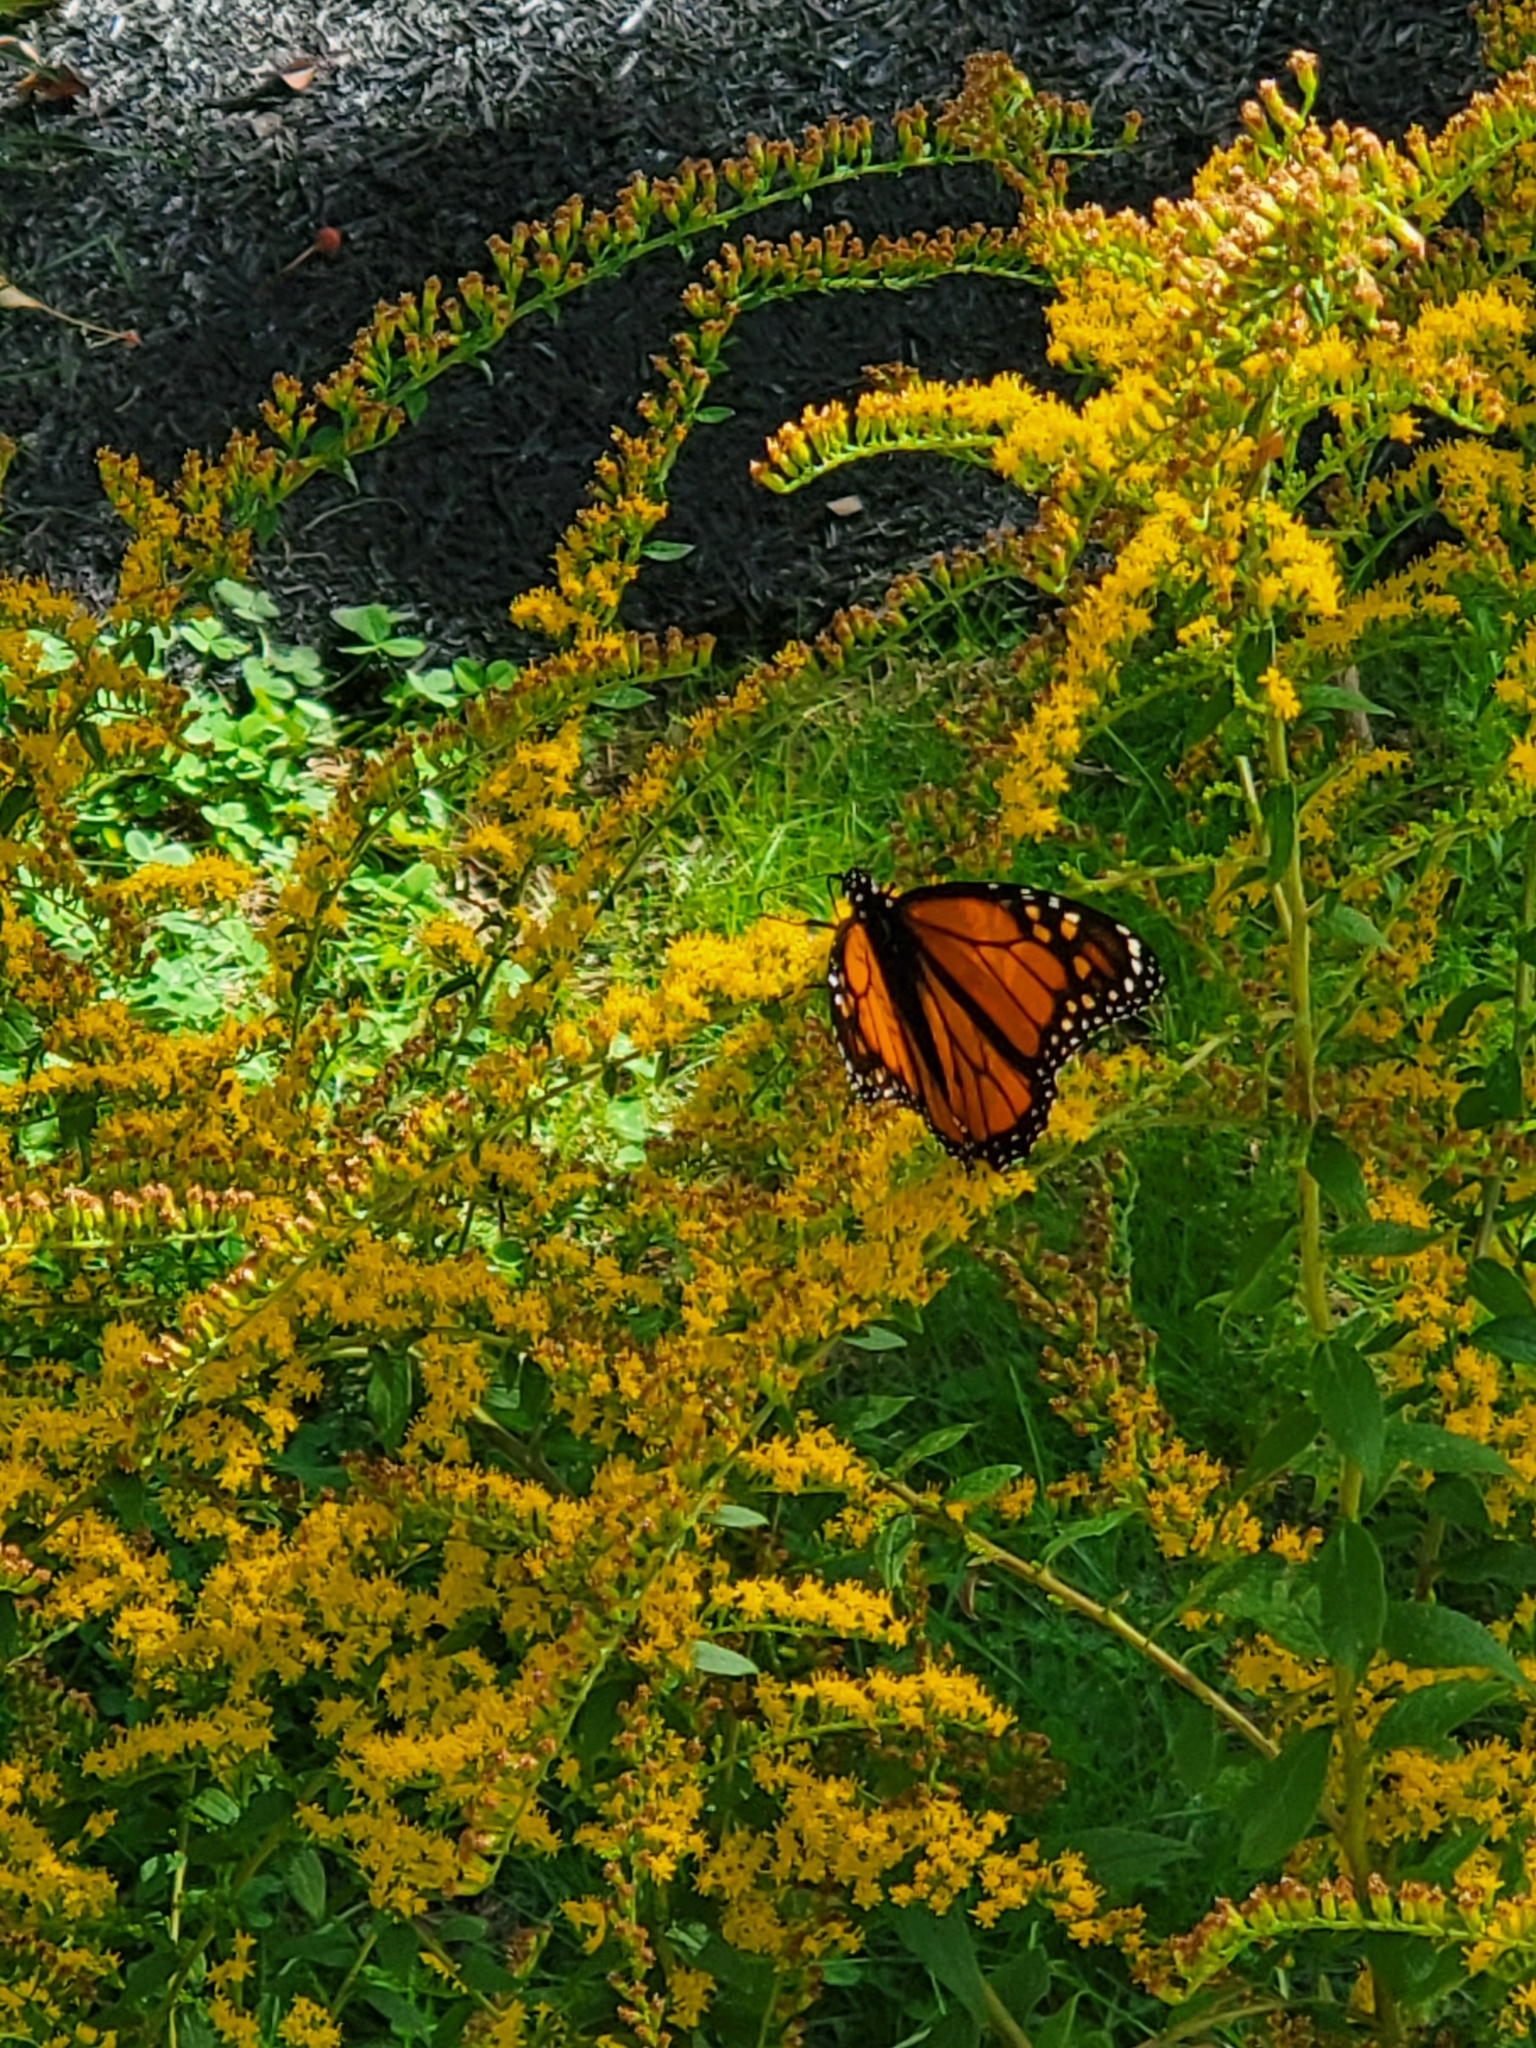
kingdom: Animalia
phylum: Arthropoda
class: Insecta
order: Lepidoptera
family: Nymphalidae
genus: Danaus
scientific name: Danaus plexippus
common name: Monarch
